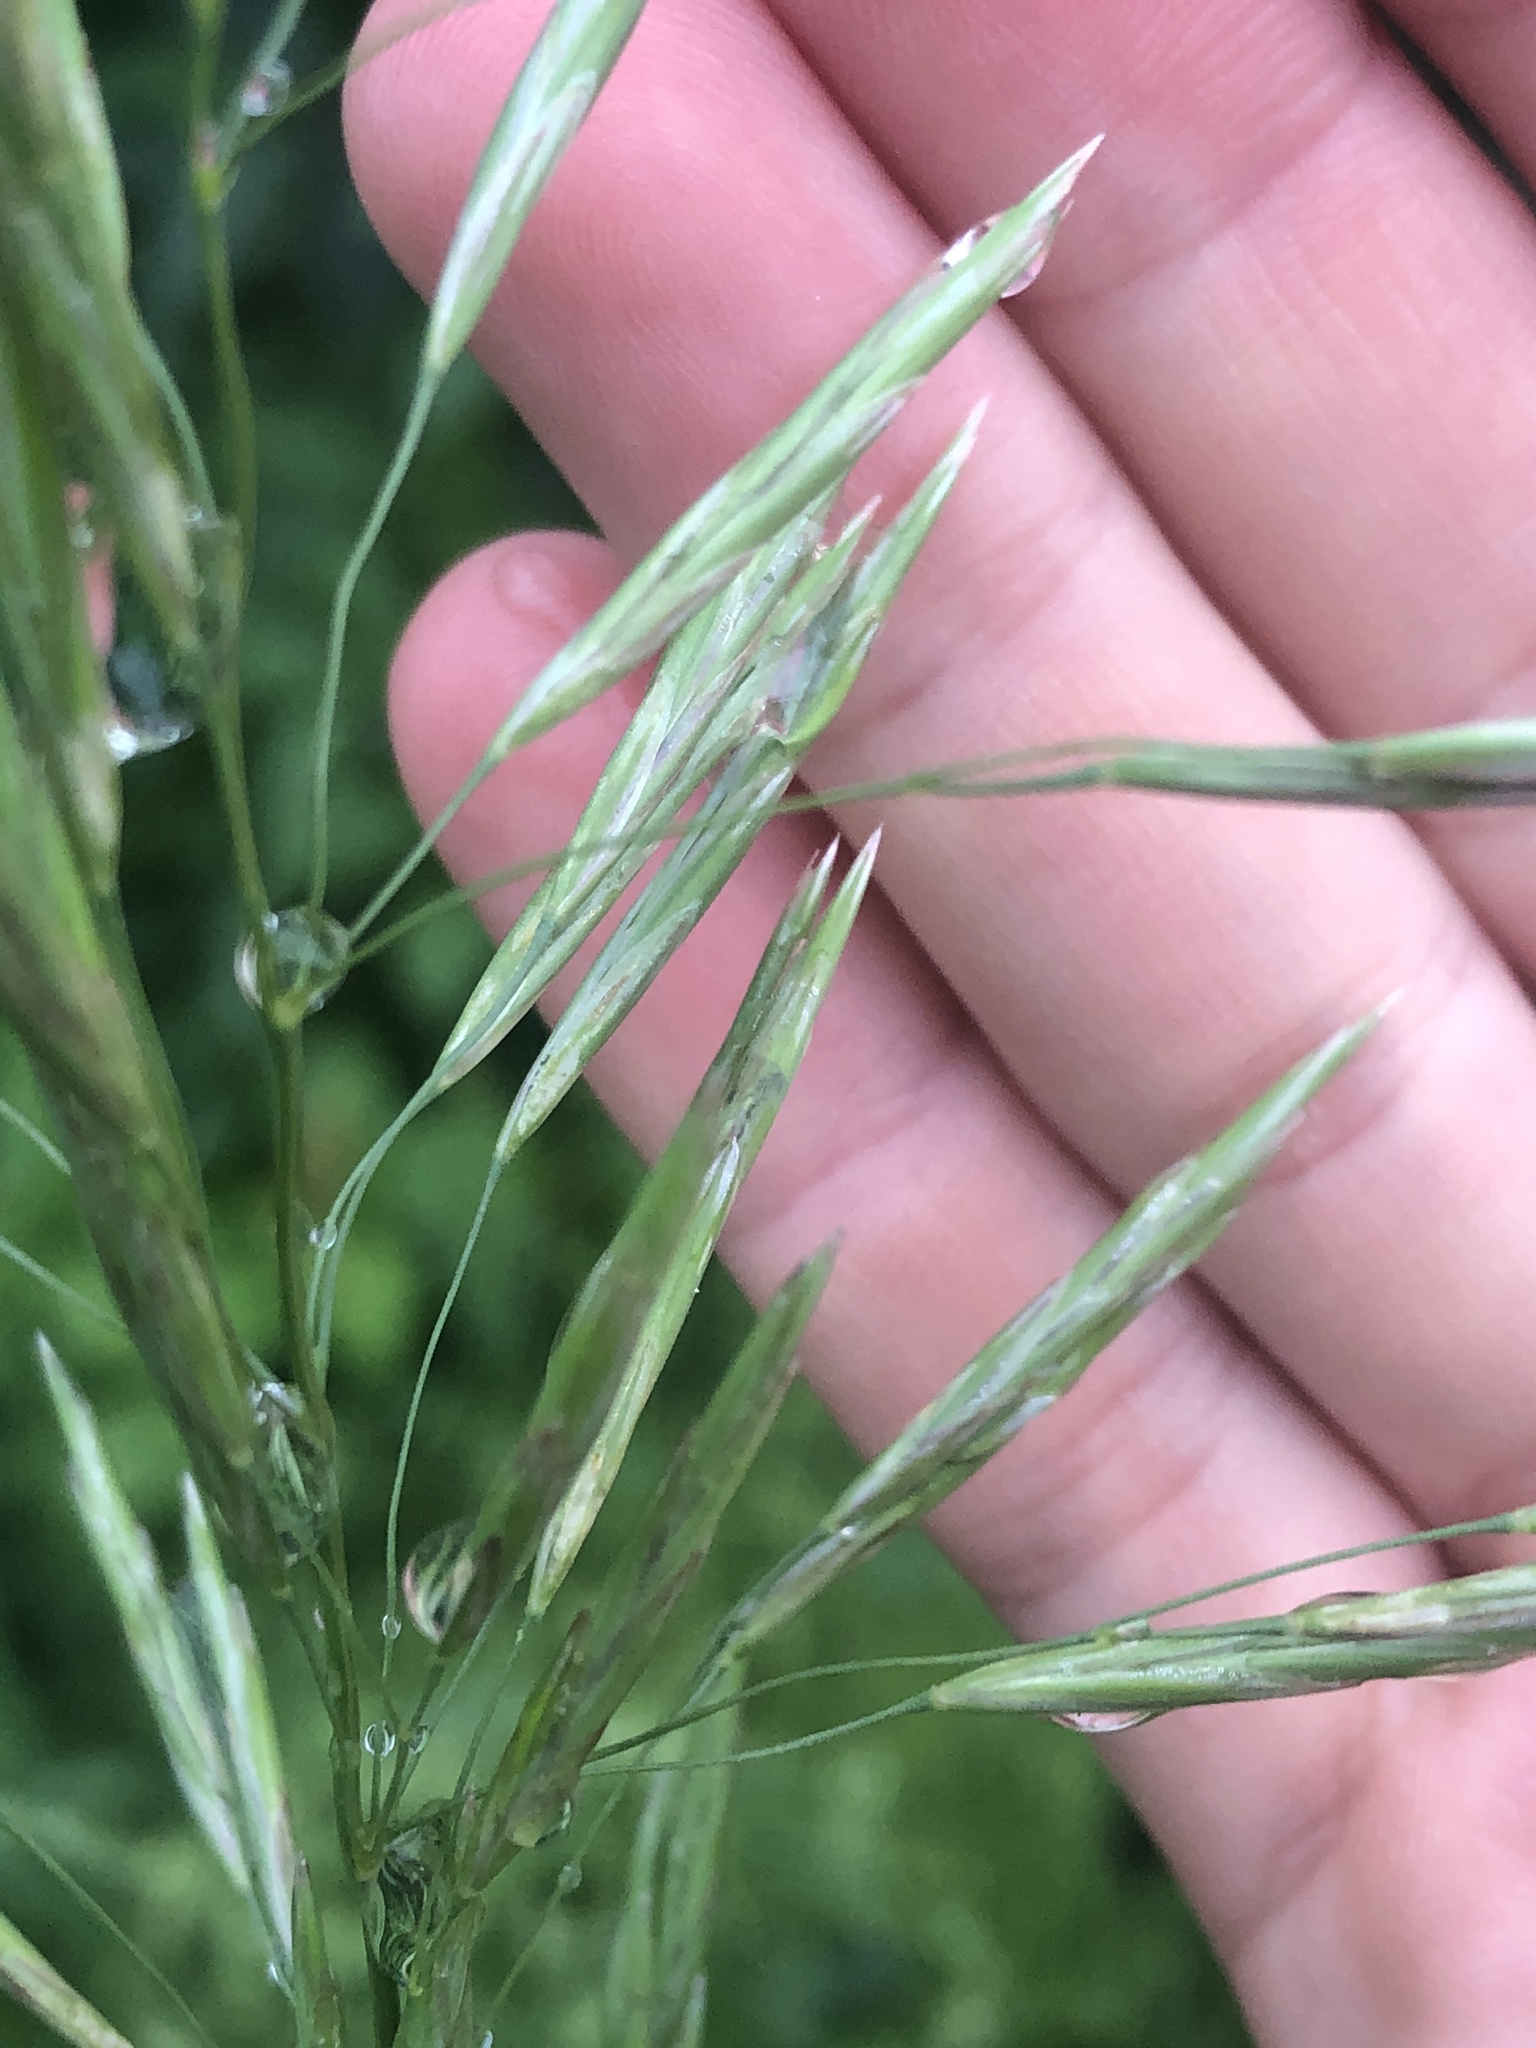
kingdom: Plantae
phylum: Tracheophyta
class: Liliopsida
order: Poales
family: Poaceae
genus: Bromus
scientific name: Bromus inermis
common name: Smooth brome
